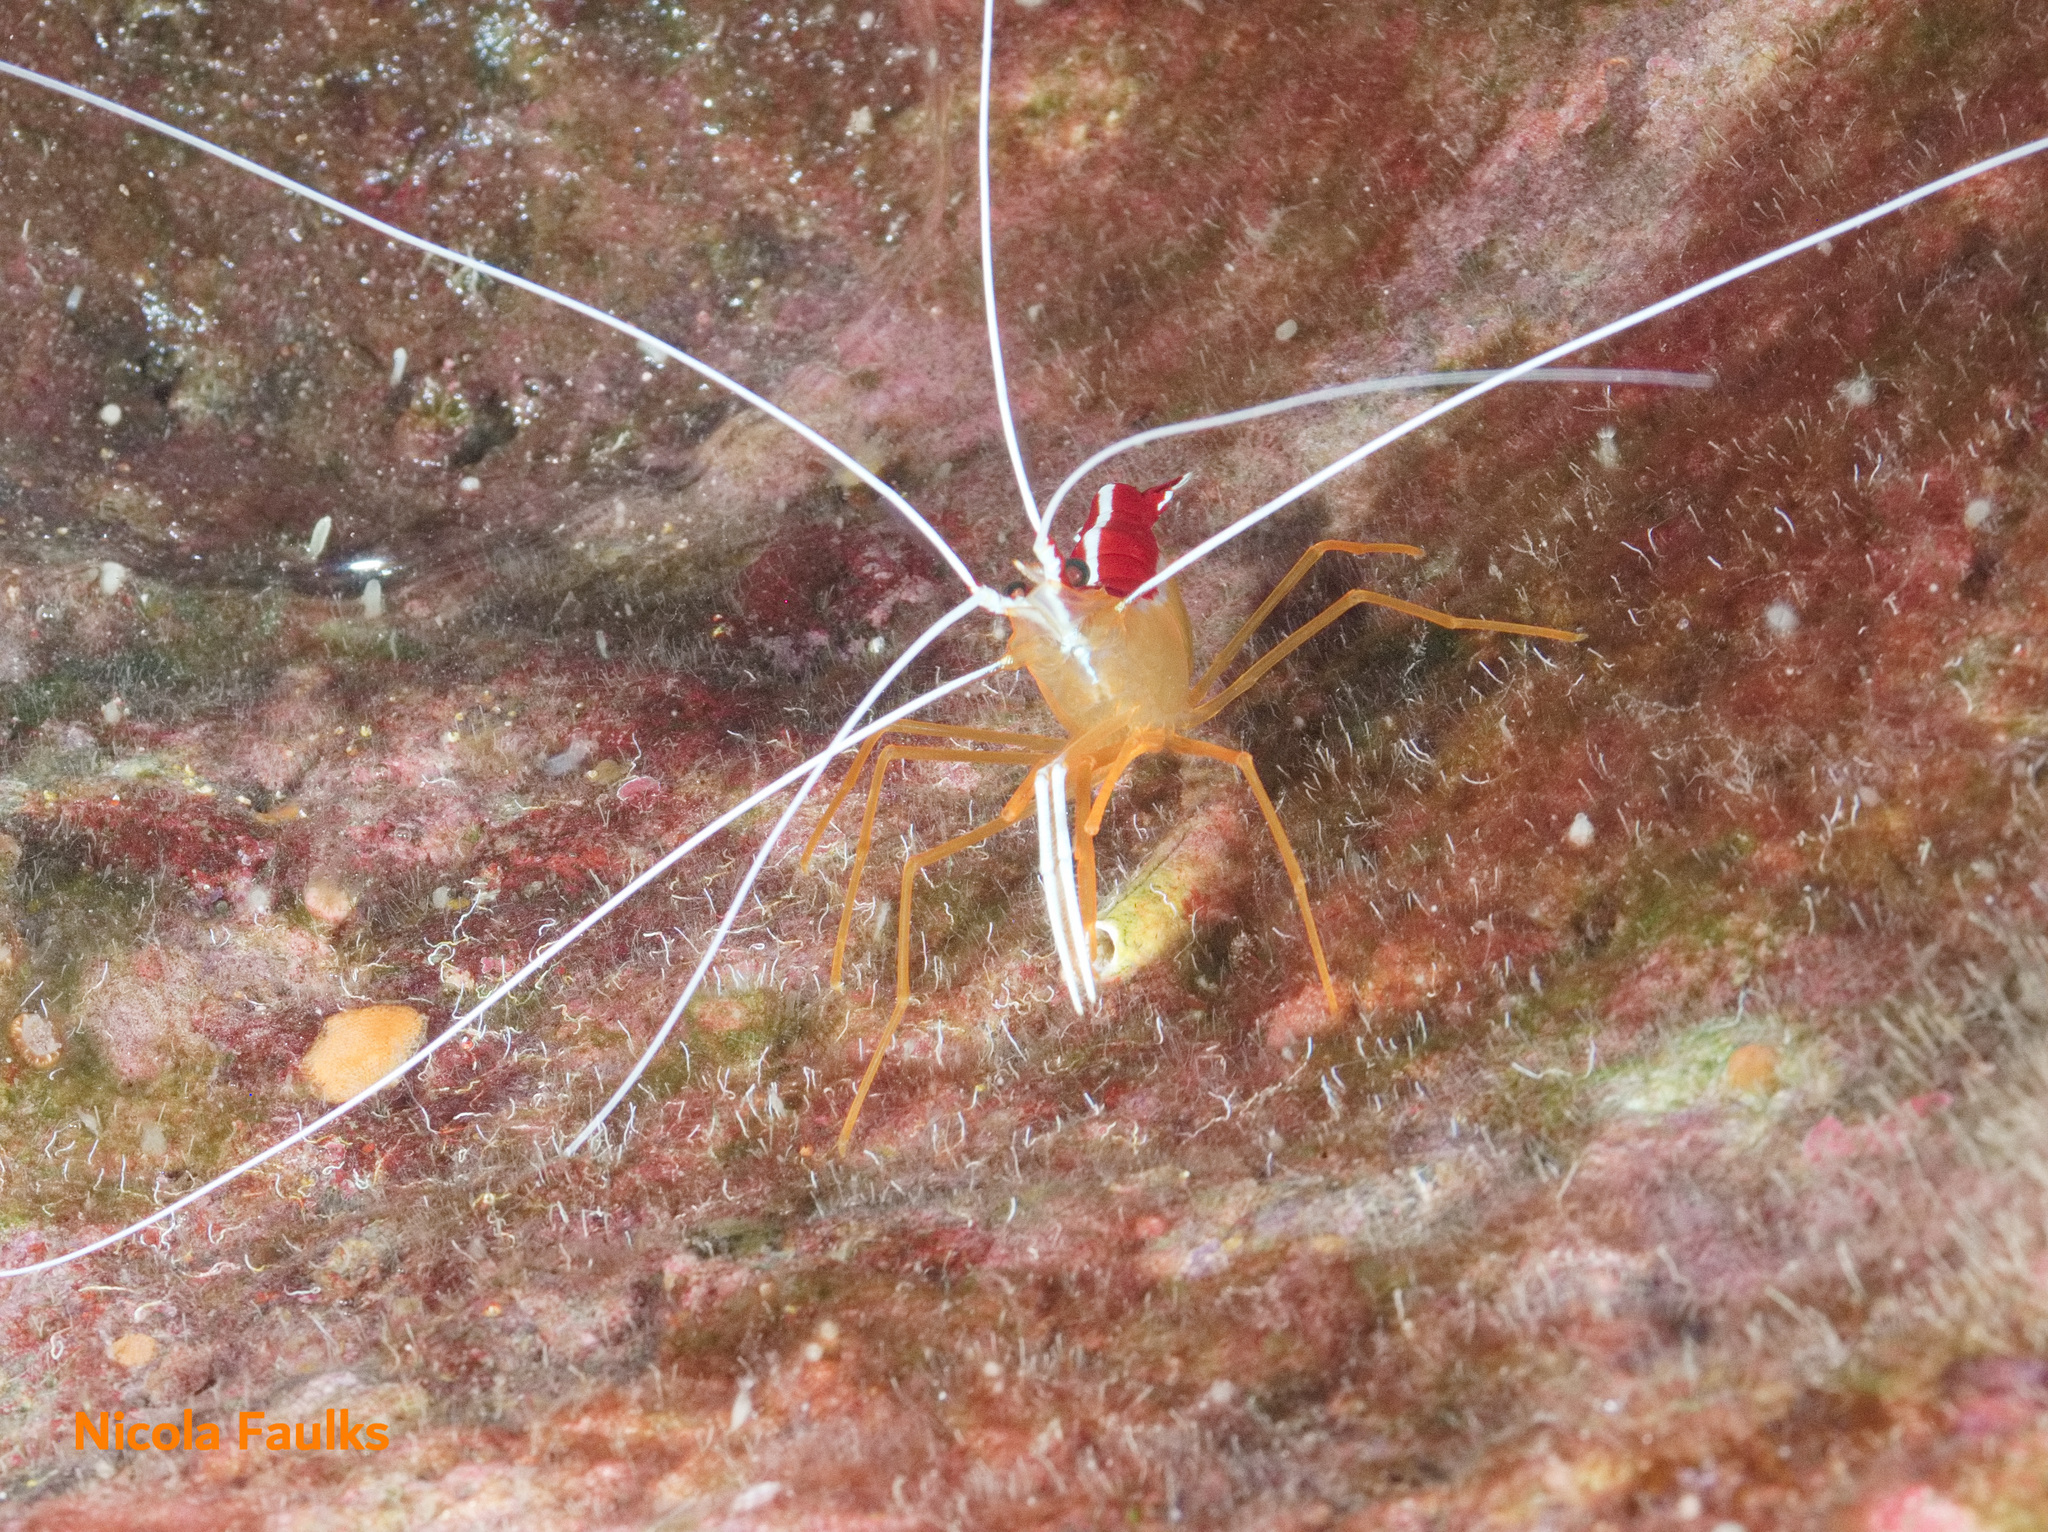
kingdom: Animalia
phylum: Arthropoda
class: Malacostraca
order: Decapoda
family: Lysmatidae
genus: Lysmata
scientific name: Lysmata grabhami
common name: Scarlet-striped cleaning shrimp
